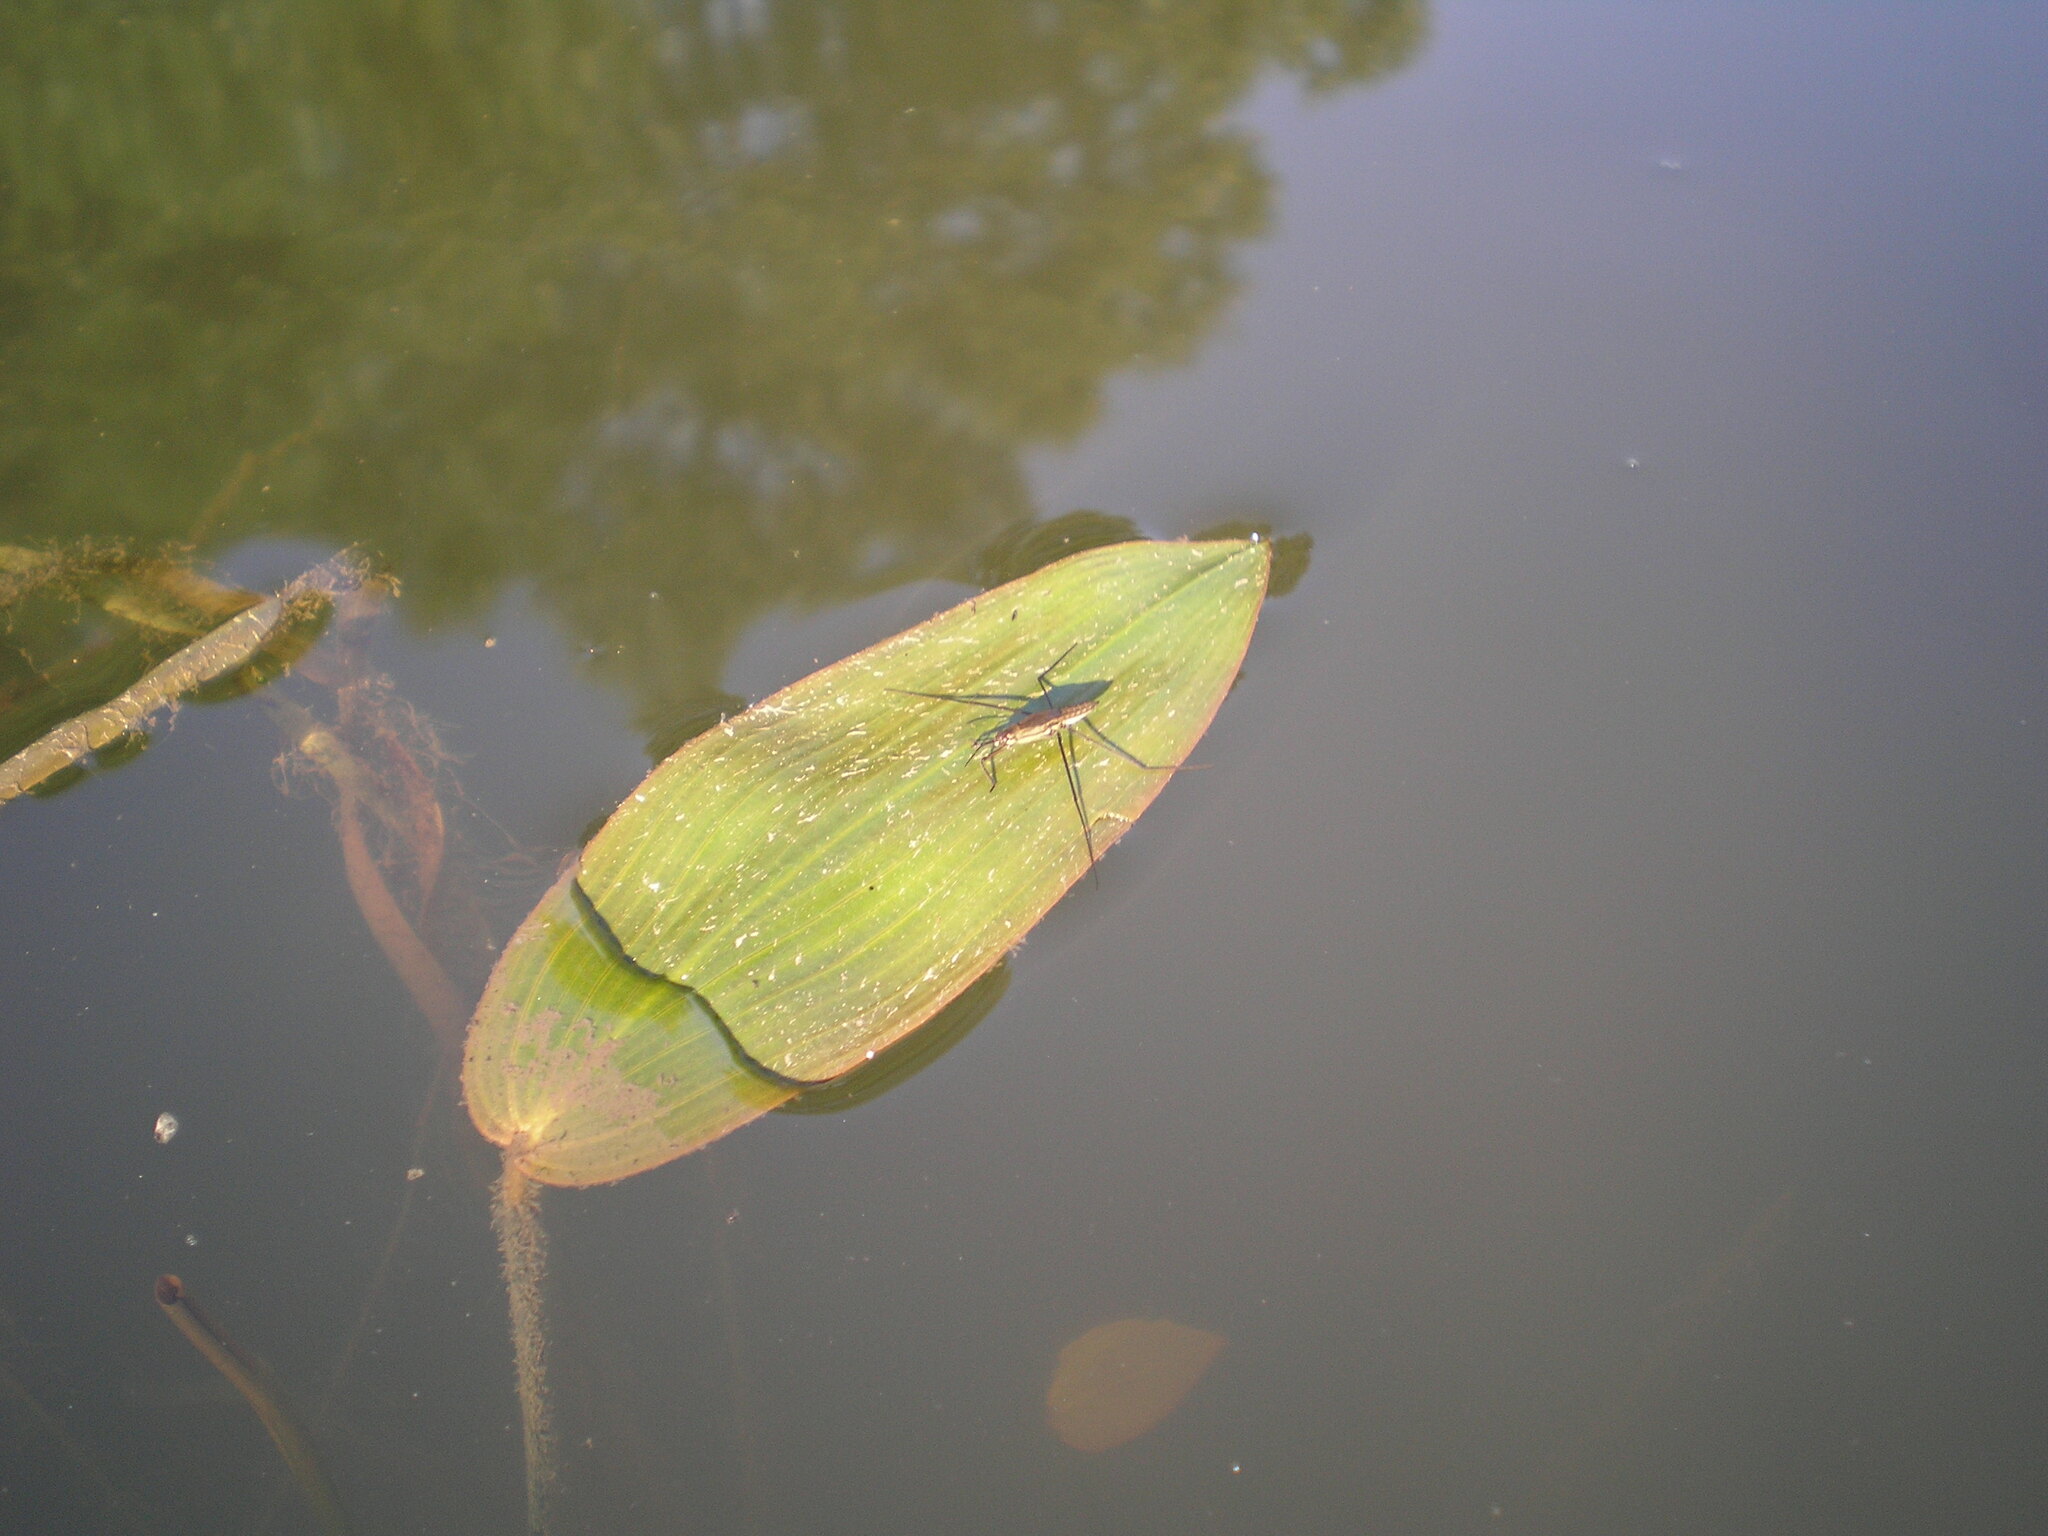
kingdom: Animalia
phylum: Arthropoda
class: Insecta
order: Hemiptera
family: Gerridae
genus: Aquarius
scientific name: Aquarius paludum
